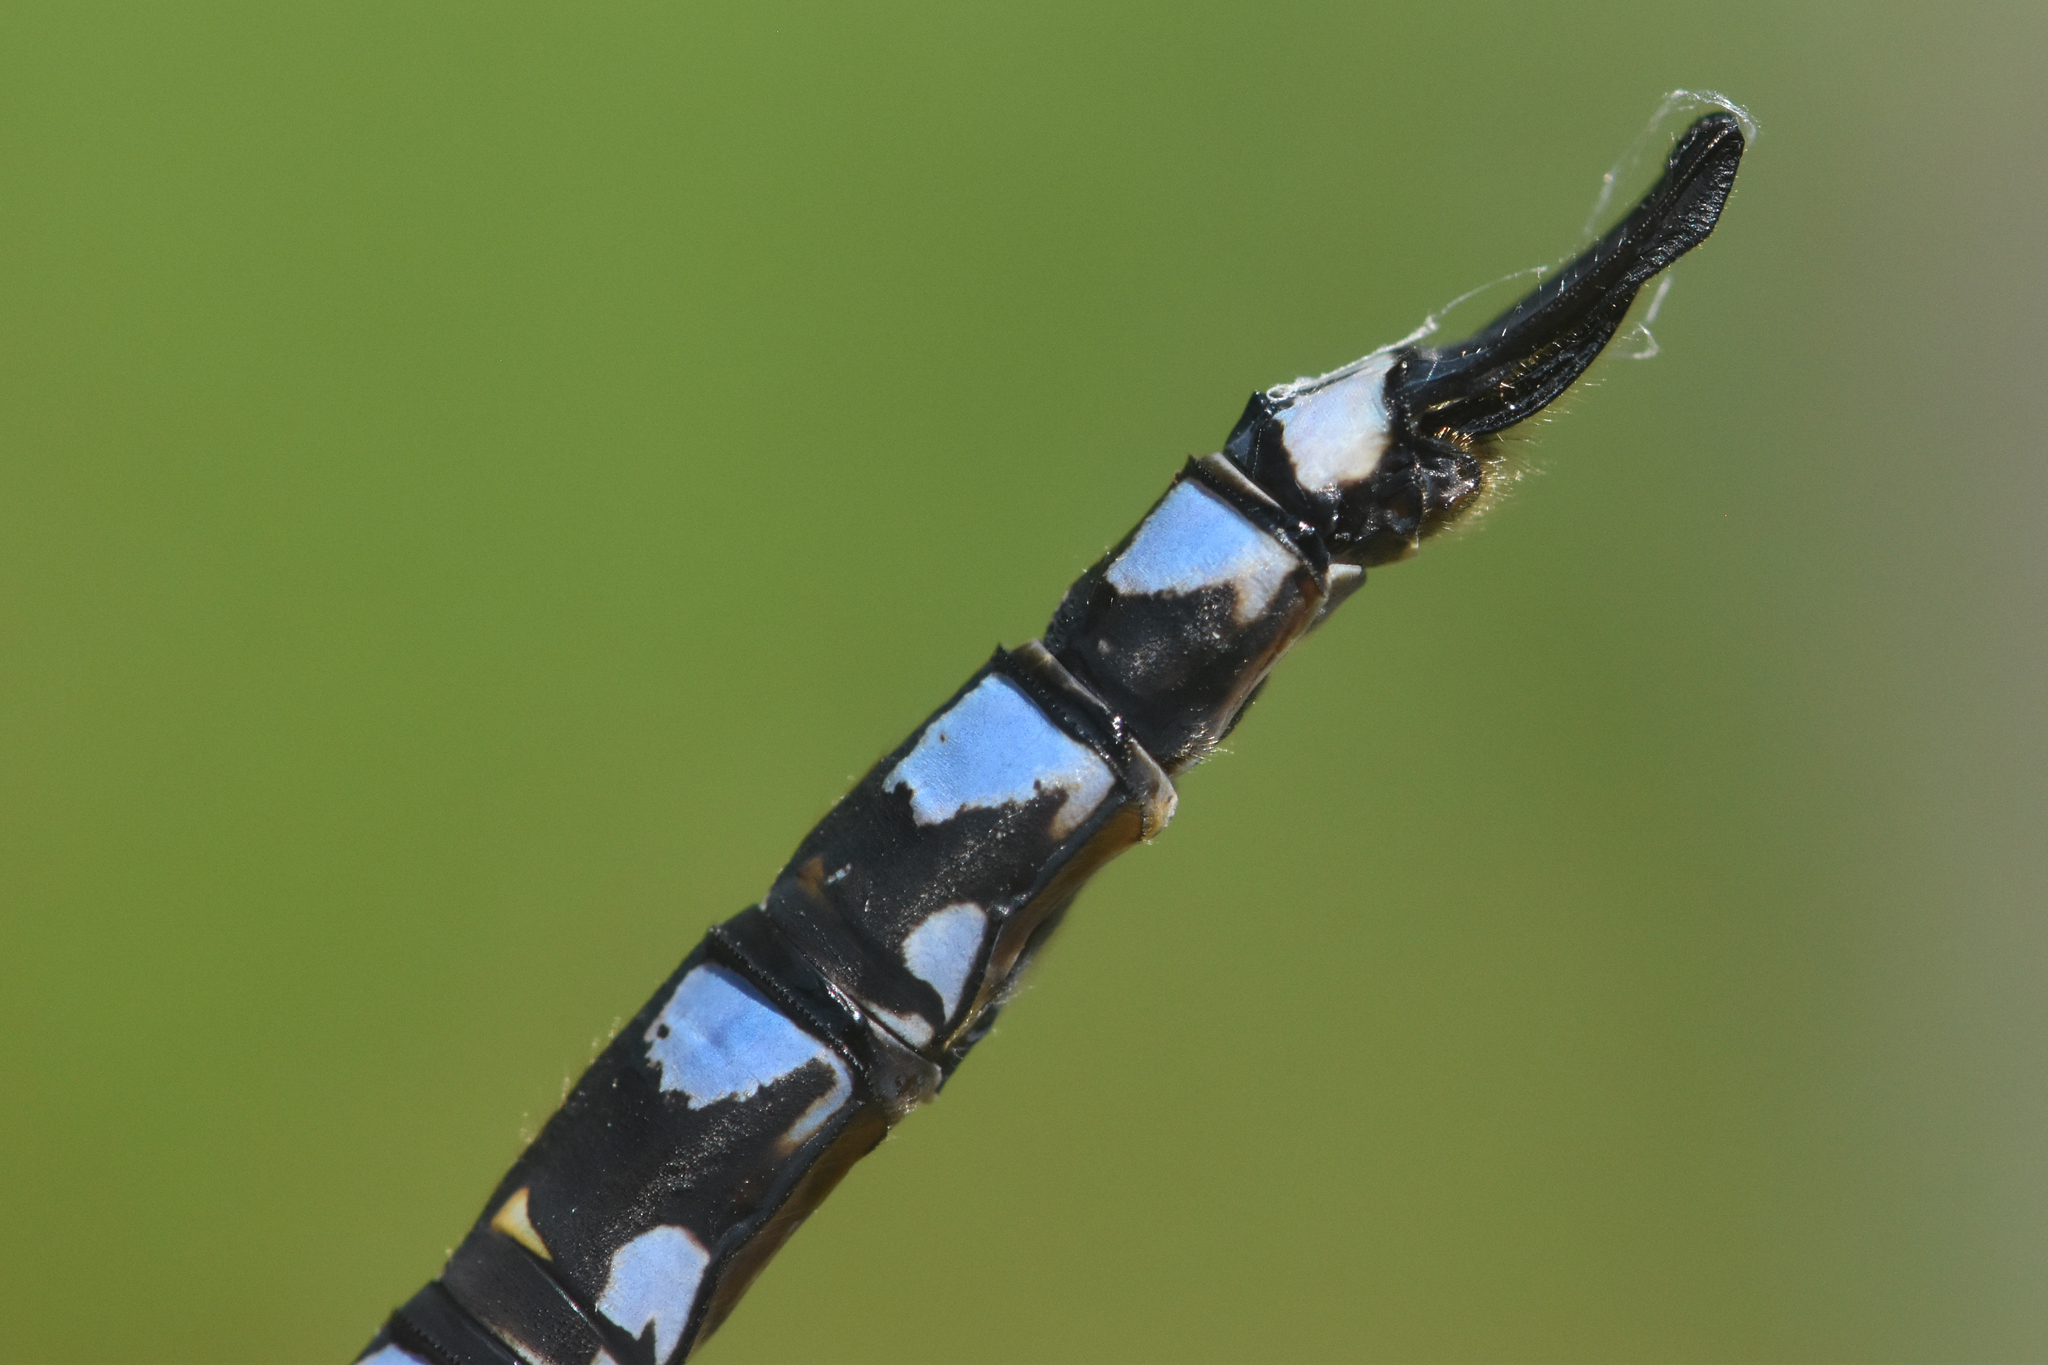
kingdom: Animalia
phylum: Arthropoda
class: Insecta
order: Odonata
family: Aeshnidae
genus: Aeshna
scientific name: Aeshna eremita
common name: Lake darner
